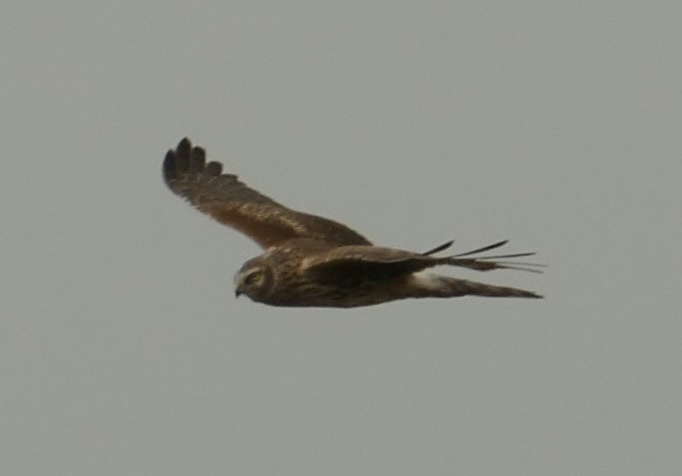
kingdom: Animalia
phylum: Chordata
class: Aves
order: Accipitriformes
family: Accipitridae
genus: Circus
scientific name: Circus cyaneus
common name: Hen harrier
